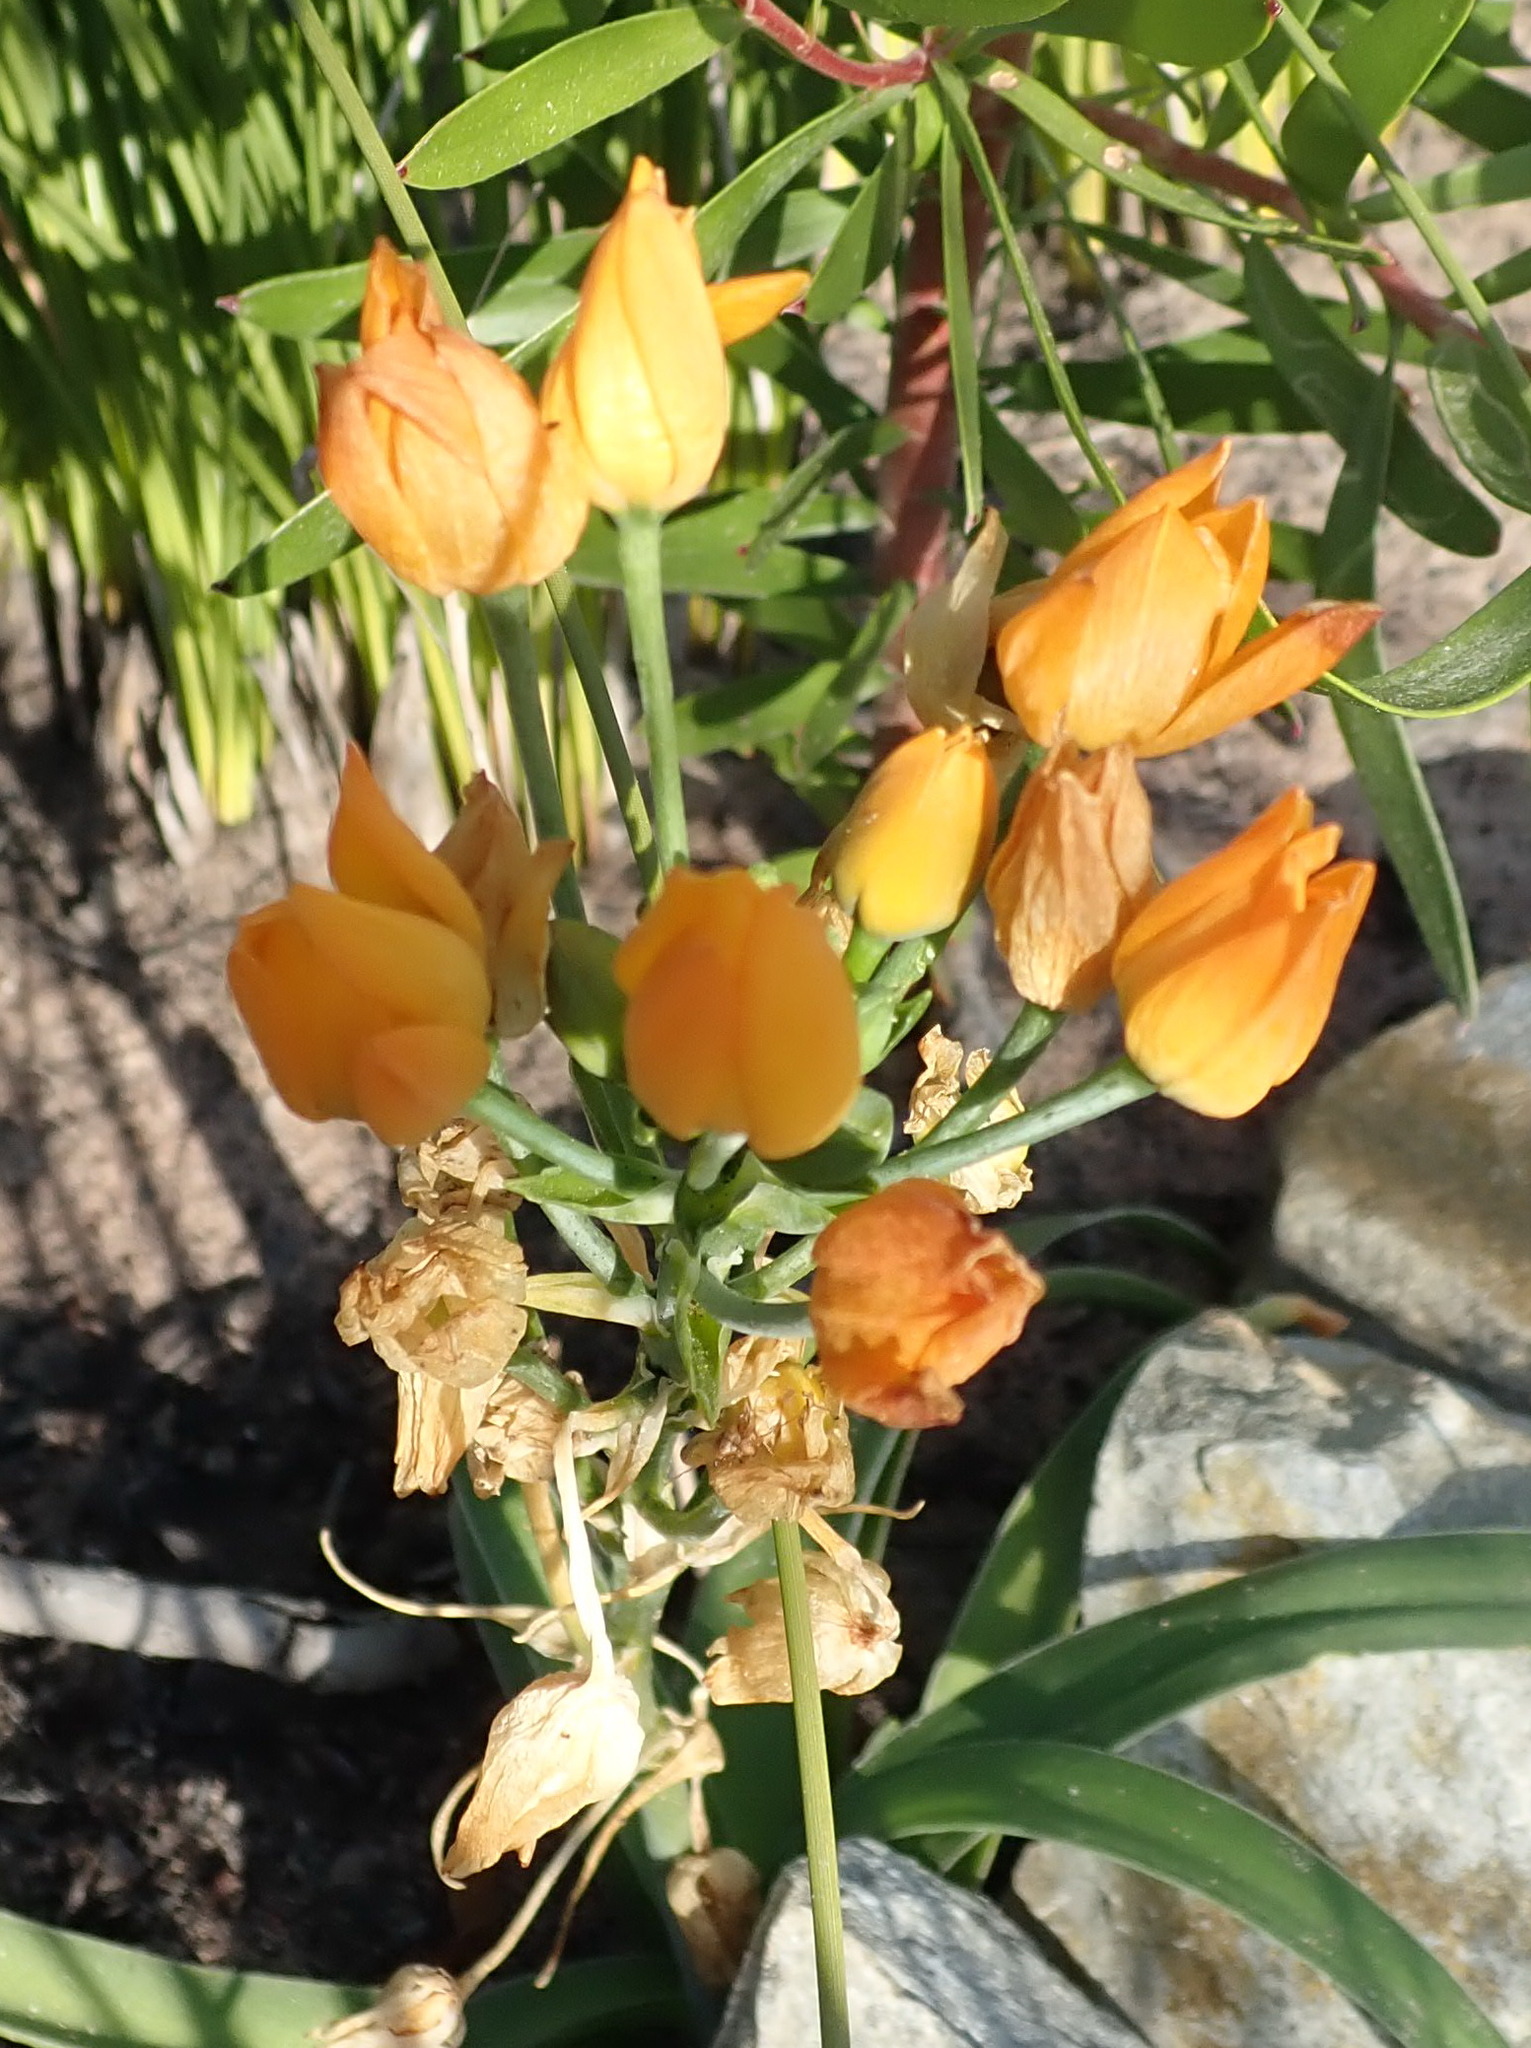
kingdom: Plantae
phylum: Tracheophyta
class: Liliopsida
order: Asparagales
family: Asparagaceae
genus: Ornithogalum
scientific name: Ornithogalum dubium
